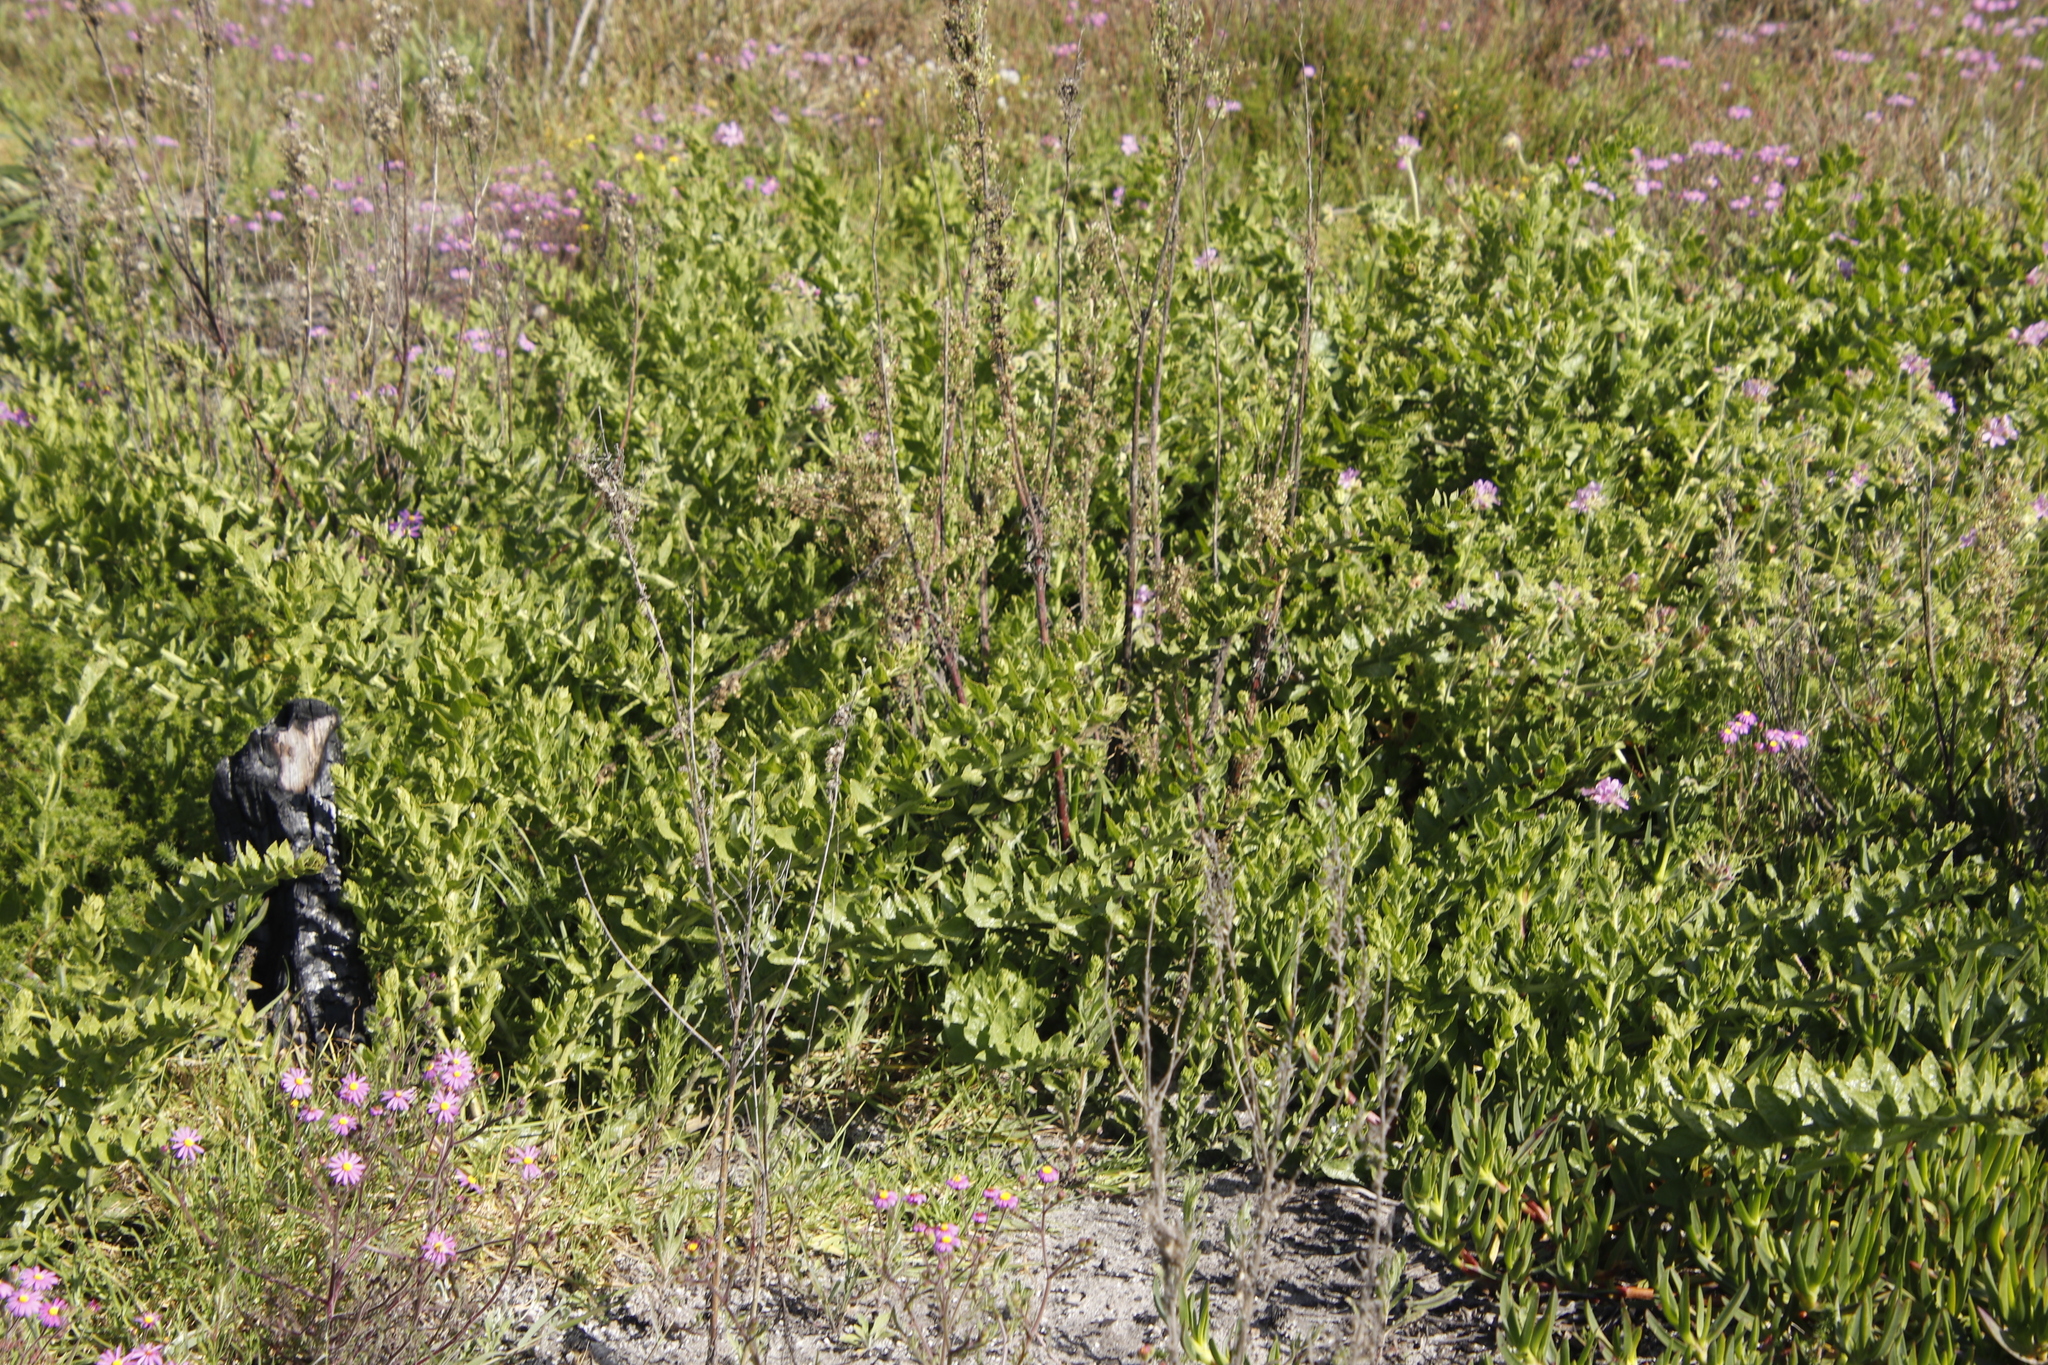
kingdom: Plantae
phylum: Tracheophyta
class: Magnoliopsida
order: Lamiales
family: Scrophulariaceae
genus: Oftia
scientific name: Oftia africana
